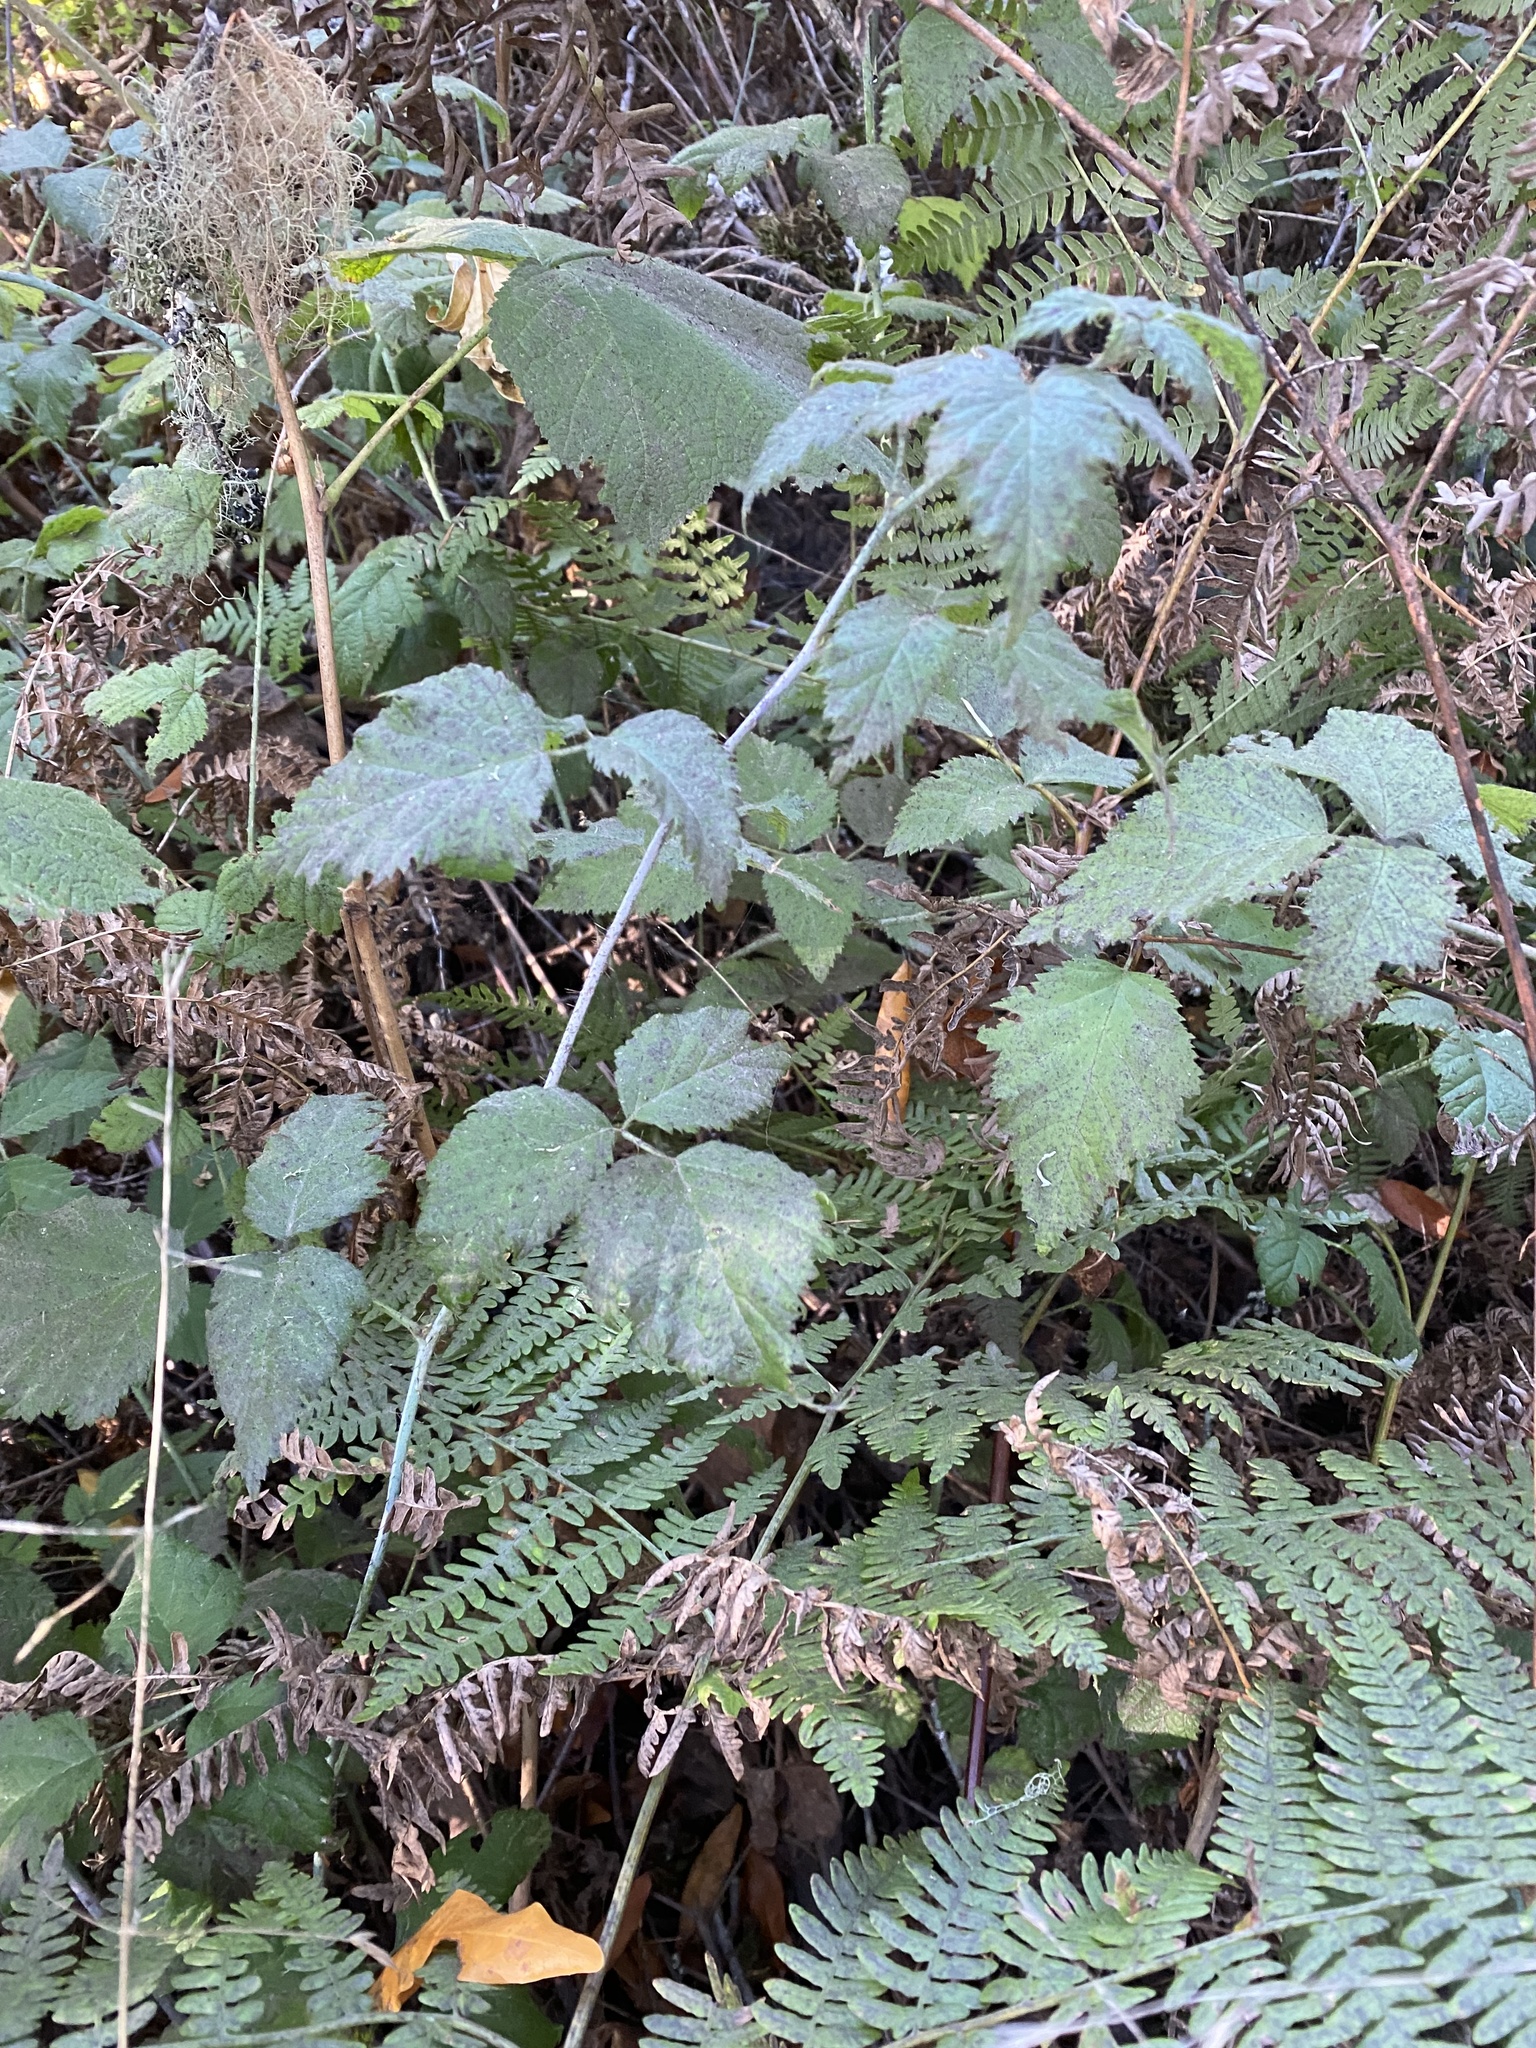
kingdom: Plantae
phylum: Tracheophyta
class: Magnoliopsida
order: Rosales
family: Rosaceae
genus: Rubus
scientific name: Rubus ursinus
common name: Pacific blackberry
